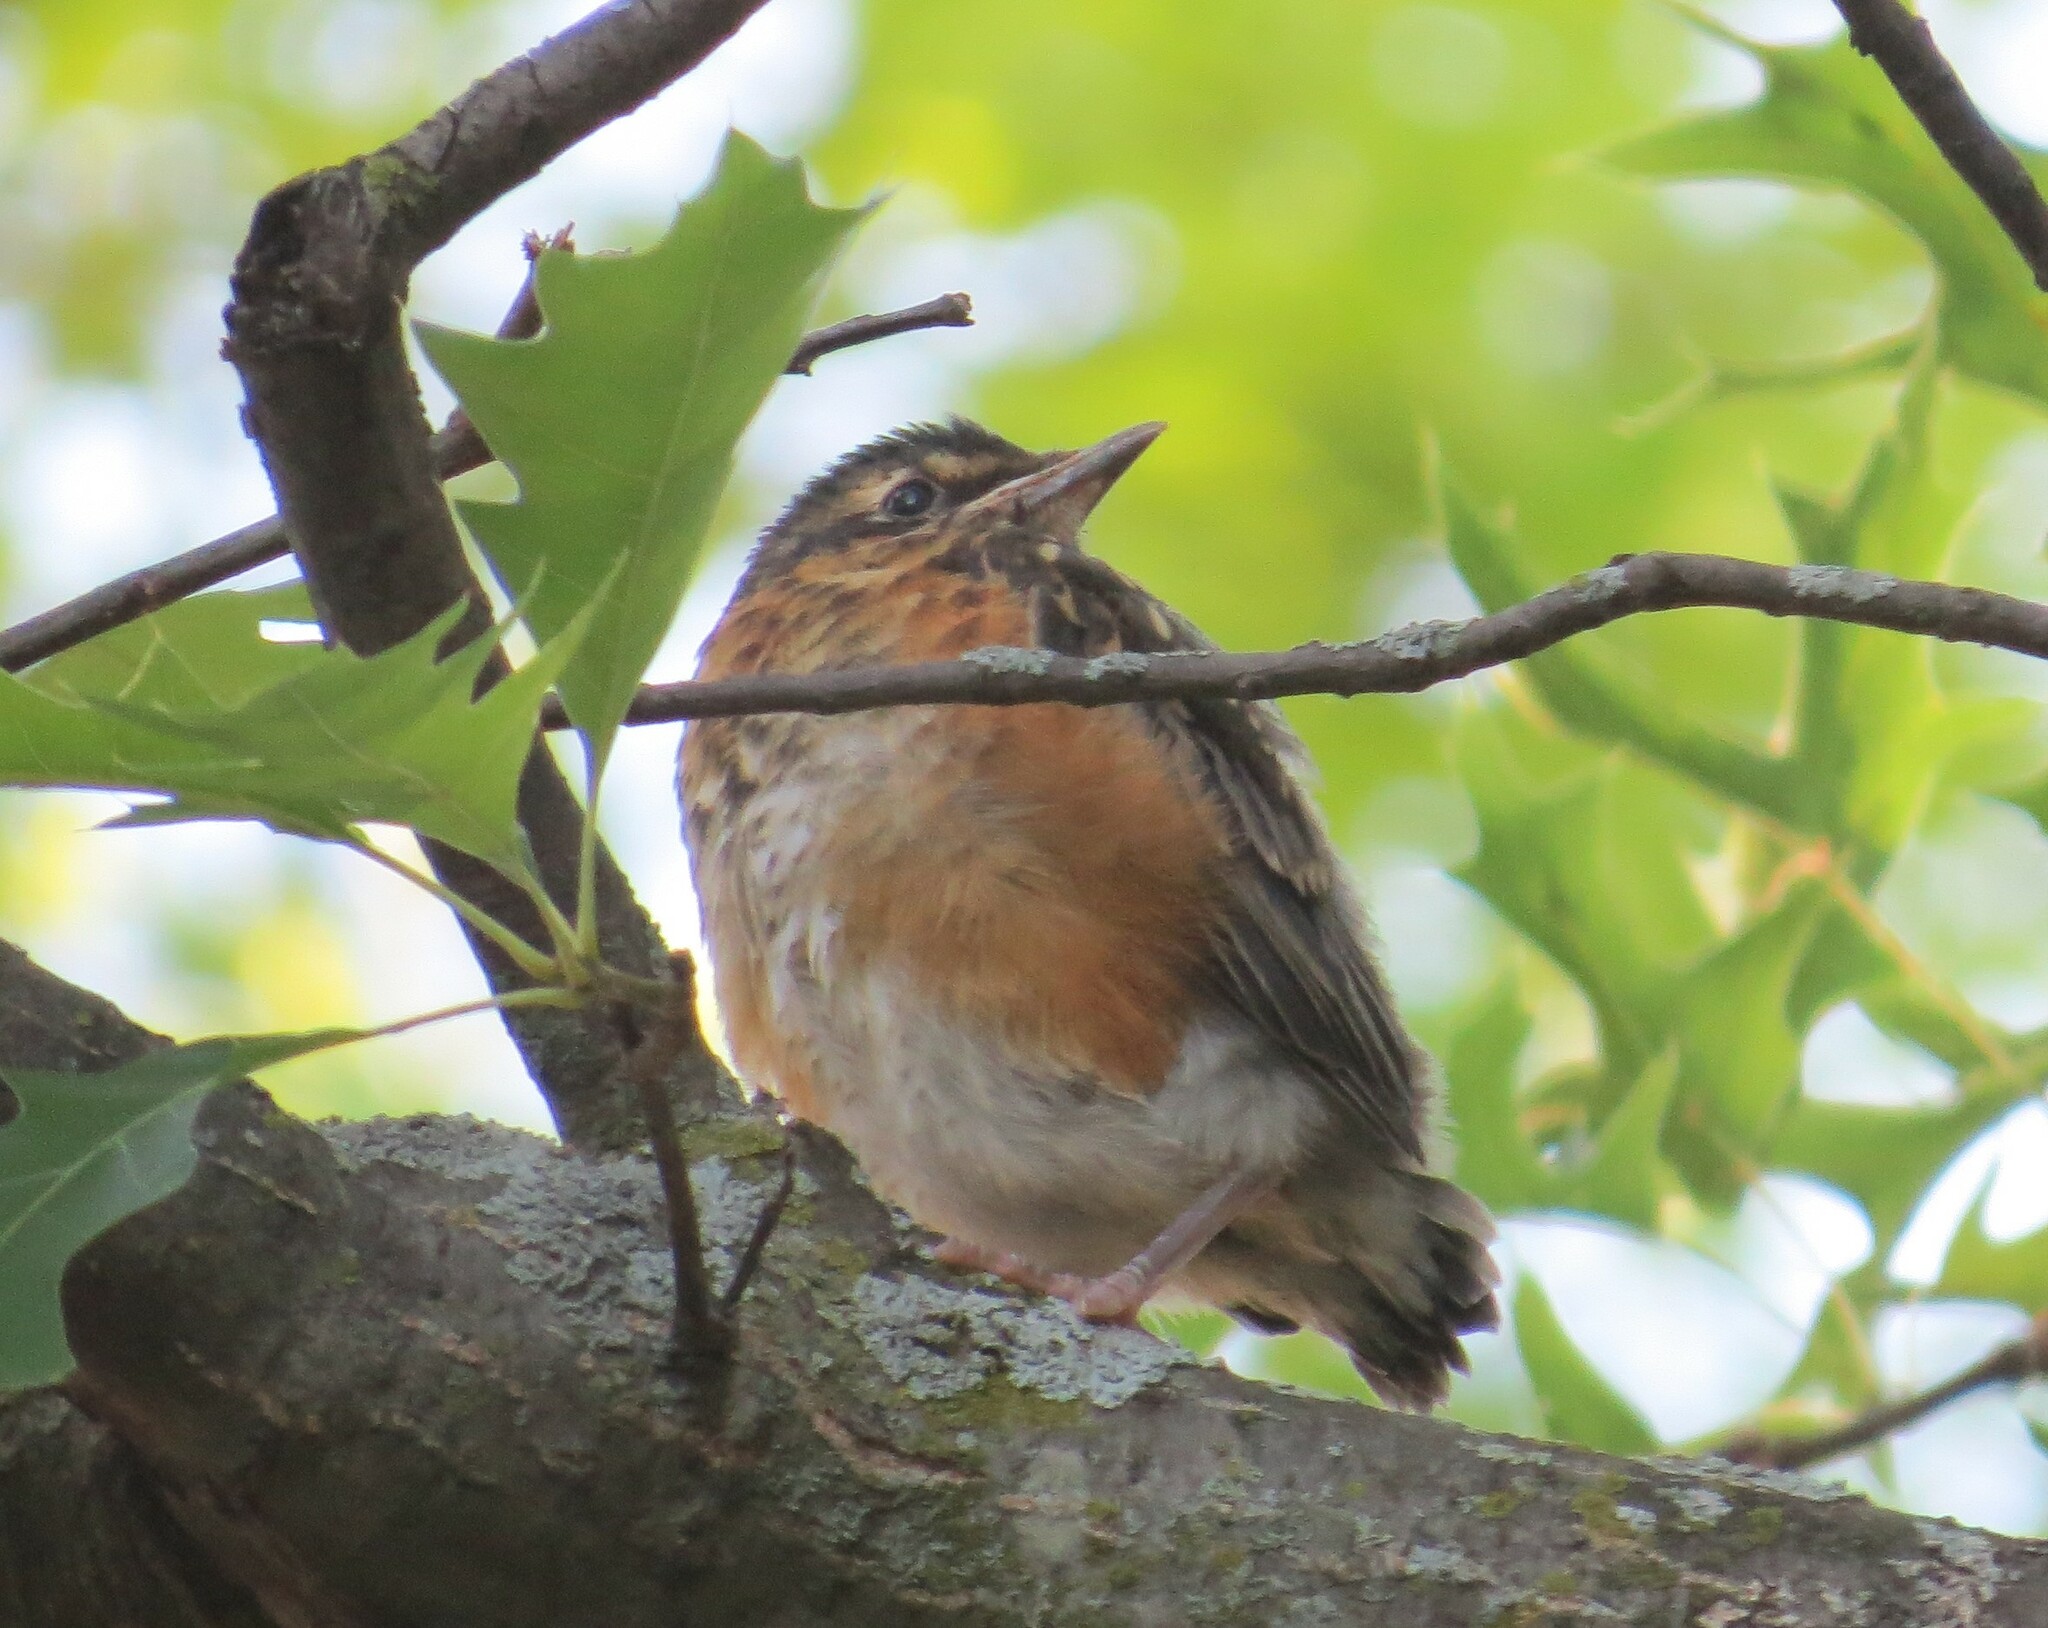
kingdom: Animalia
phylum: Chordata
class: Aves
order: Passeriformes
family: Turdidae
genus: Turdus
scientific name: Turdus migratorius
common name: American robin
